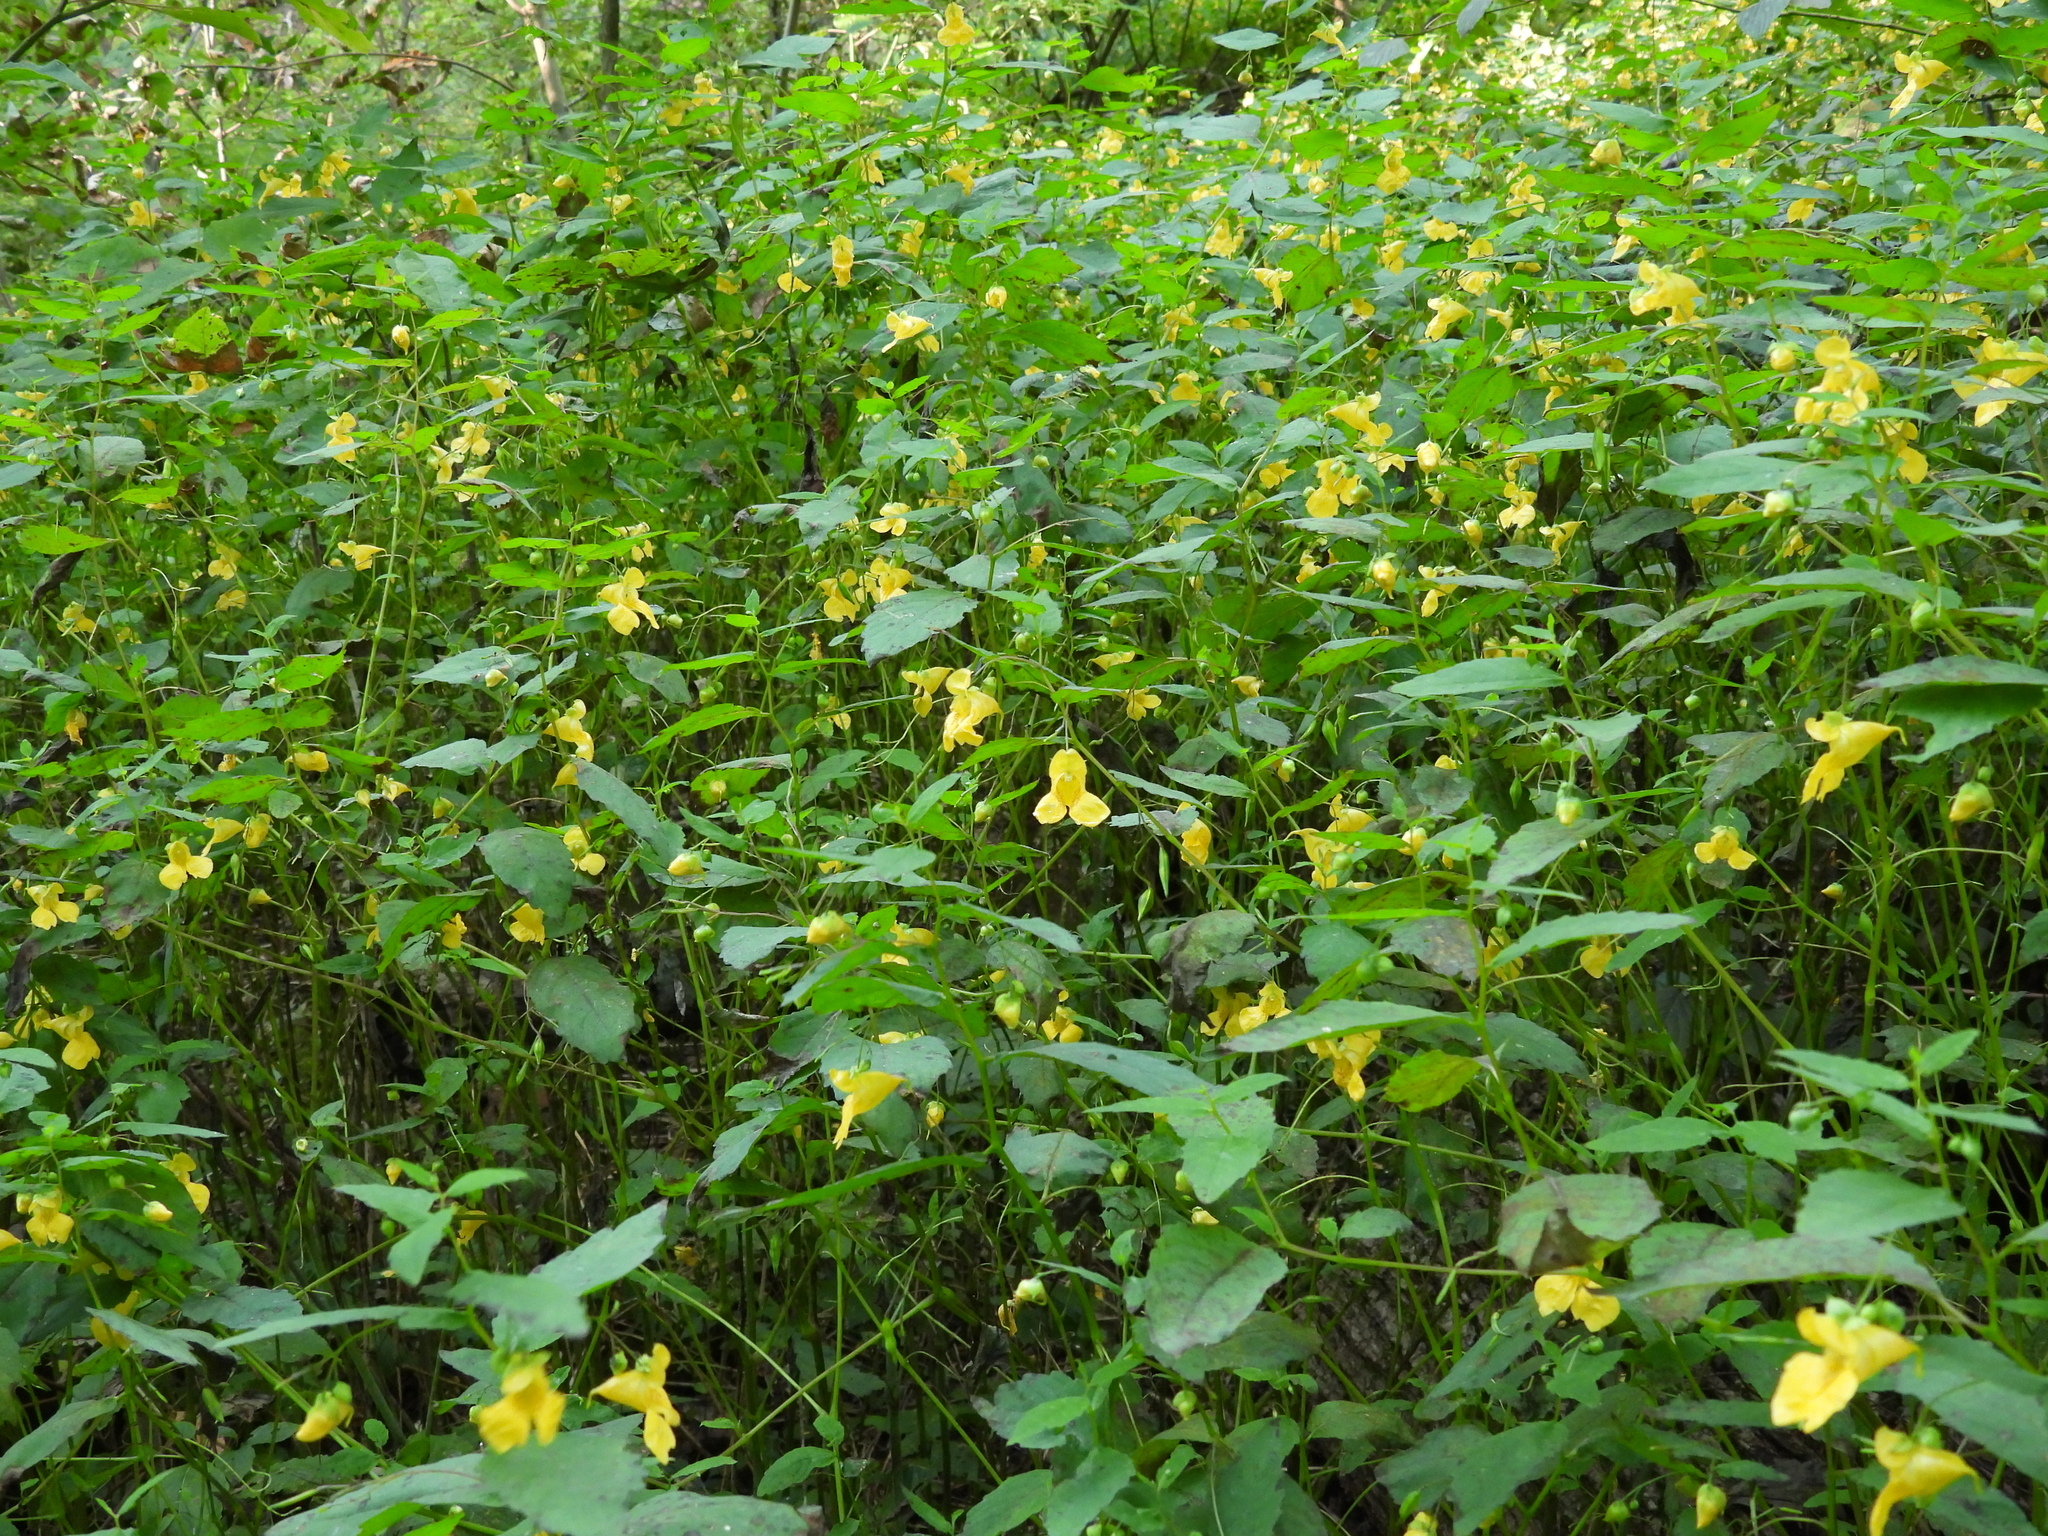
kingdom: Plantae
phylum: Tracheophyta
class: Magnoliopsida
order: Ericales
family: Balsaminaceae
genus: Impatiens
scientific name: Impatiens pallida
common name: Pale snapweed
